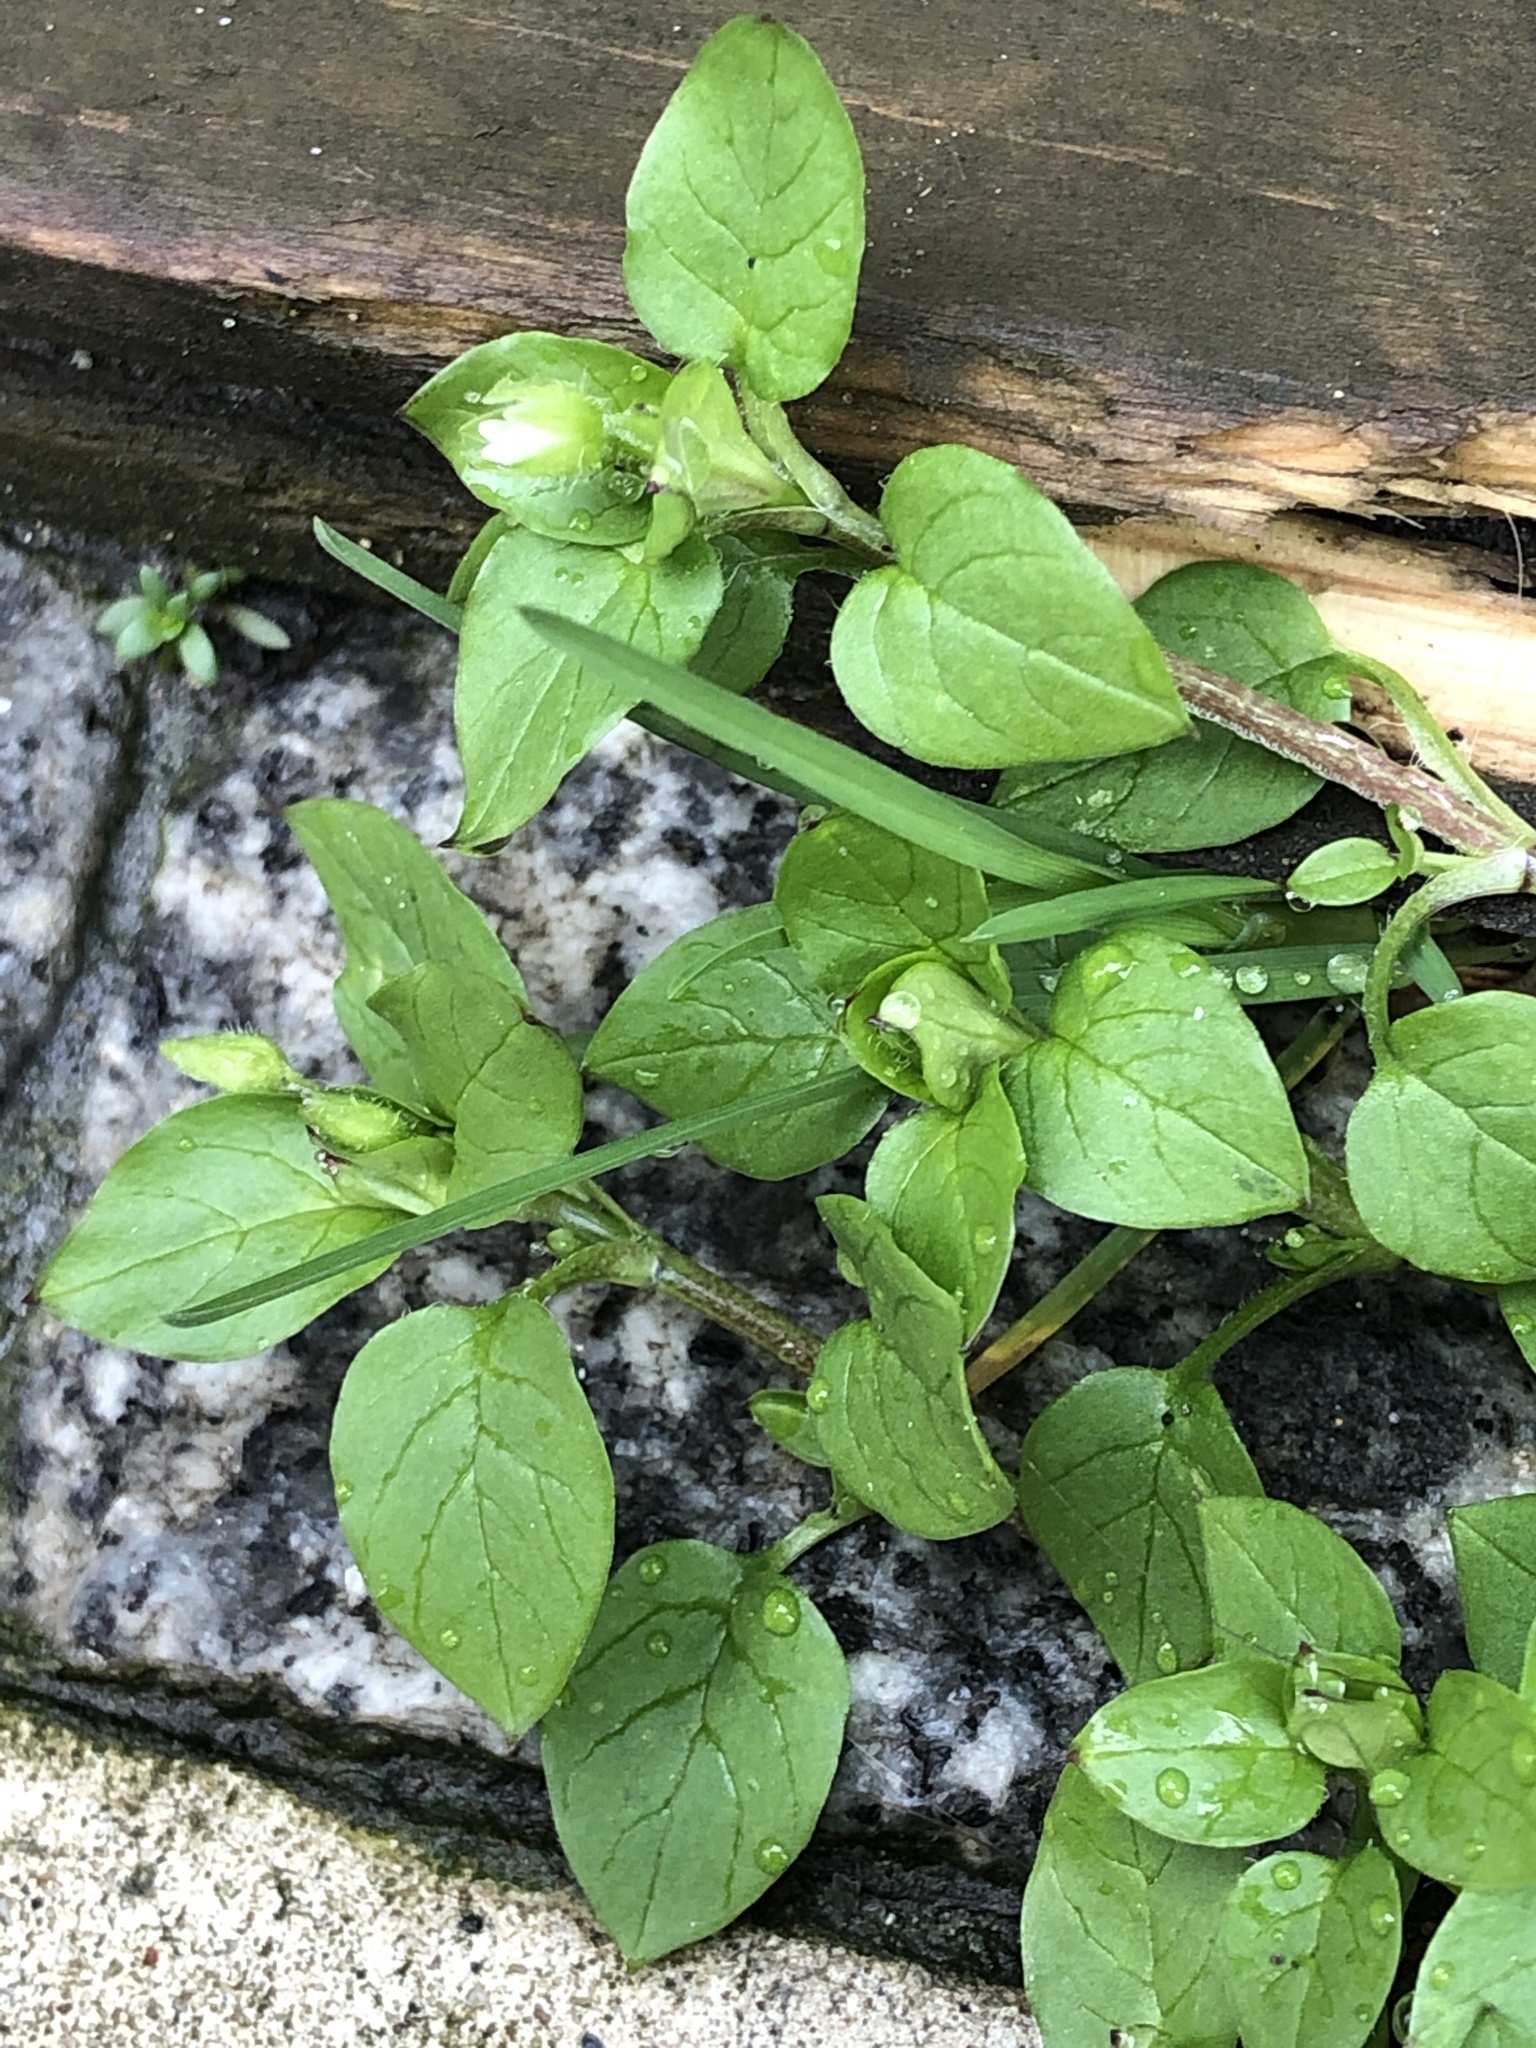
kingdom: Plantae
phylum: Tracheophyta
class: Magnoliopsida
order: Caryophyllales
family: Caryophyllaceae
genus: Stellaria
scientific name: Stellaria media
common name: Common chickweed
